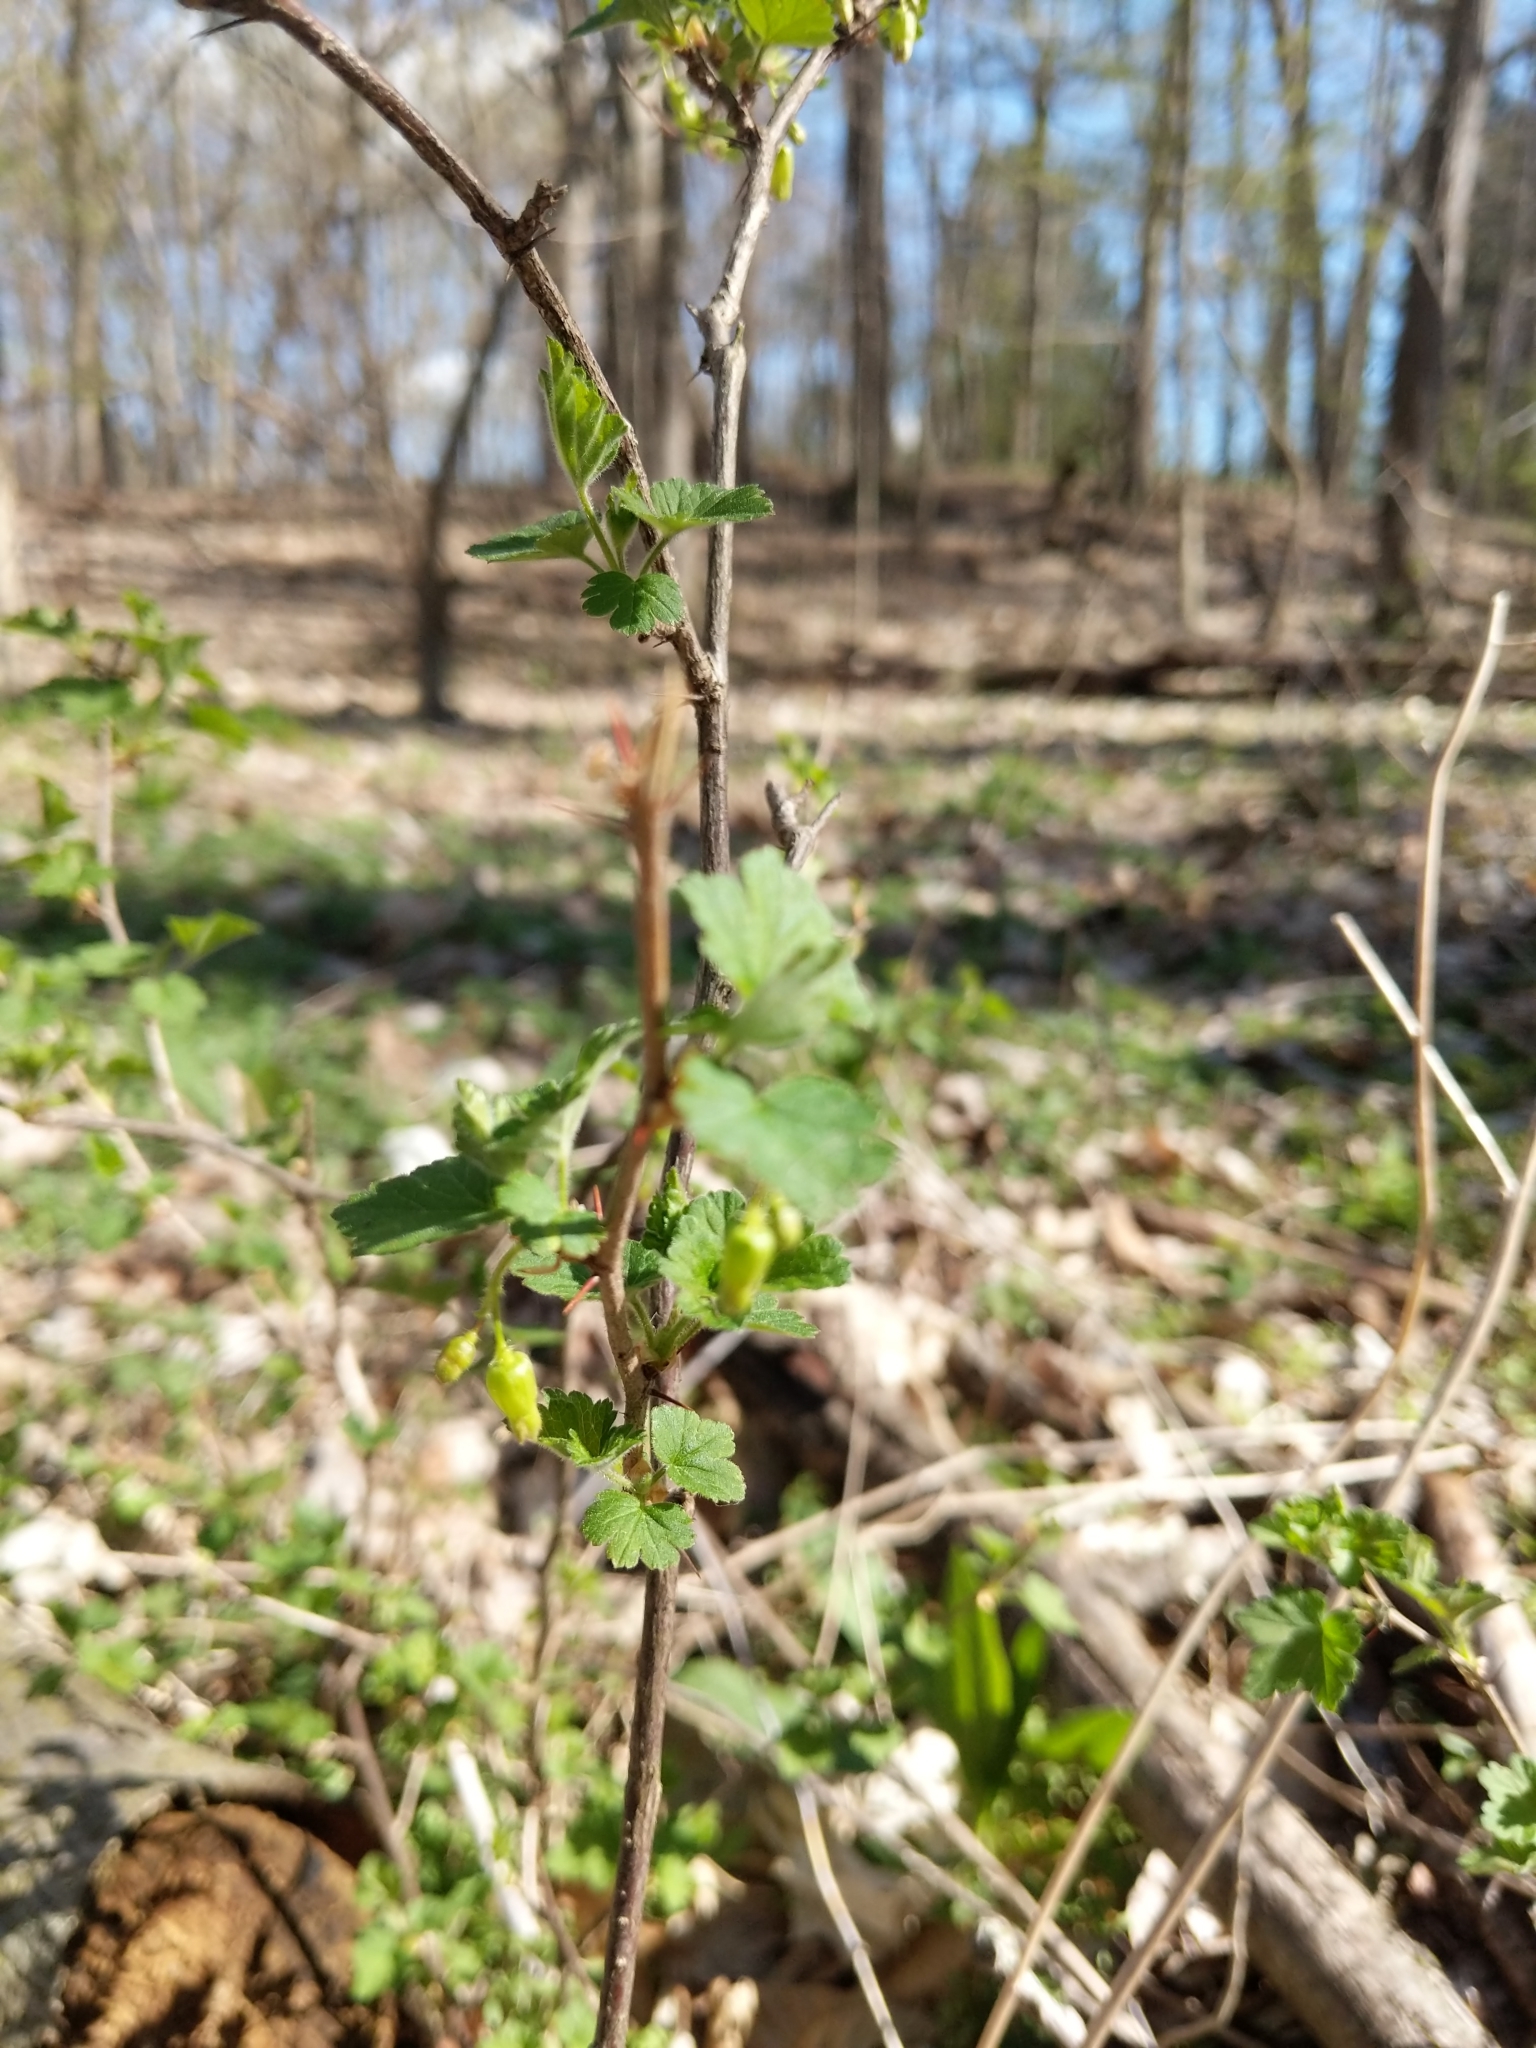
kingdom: Plantae
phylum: Tracheophyta
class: Magnoliopsida
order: Saxifragales
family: Grossulariaceae
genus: Ribes
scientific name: Ribes cynosbati
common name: American gooseberry
